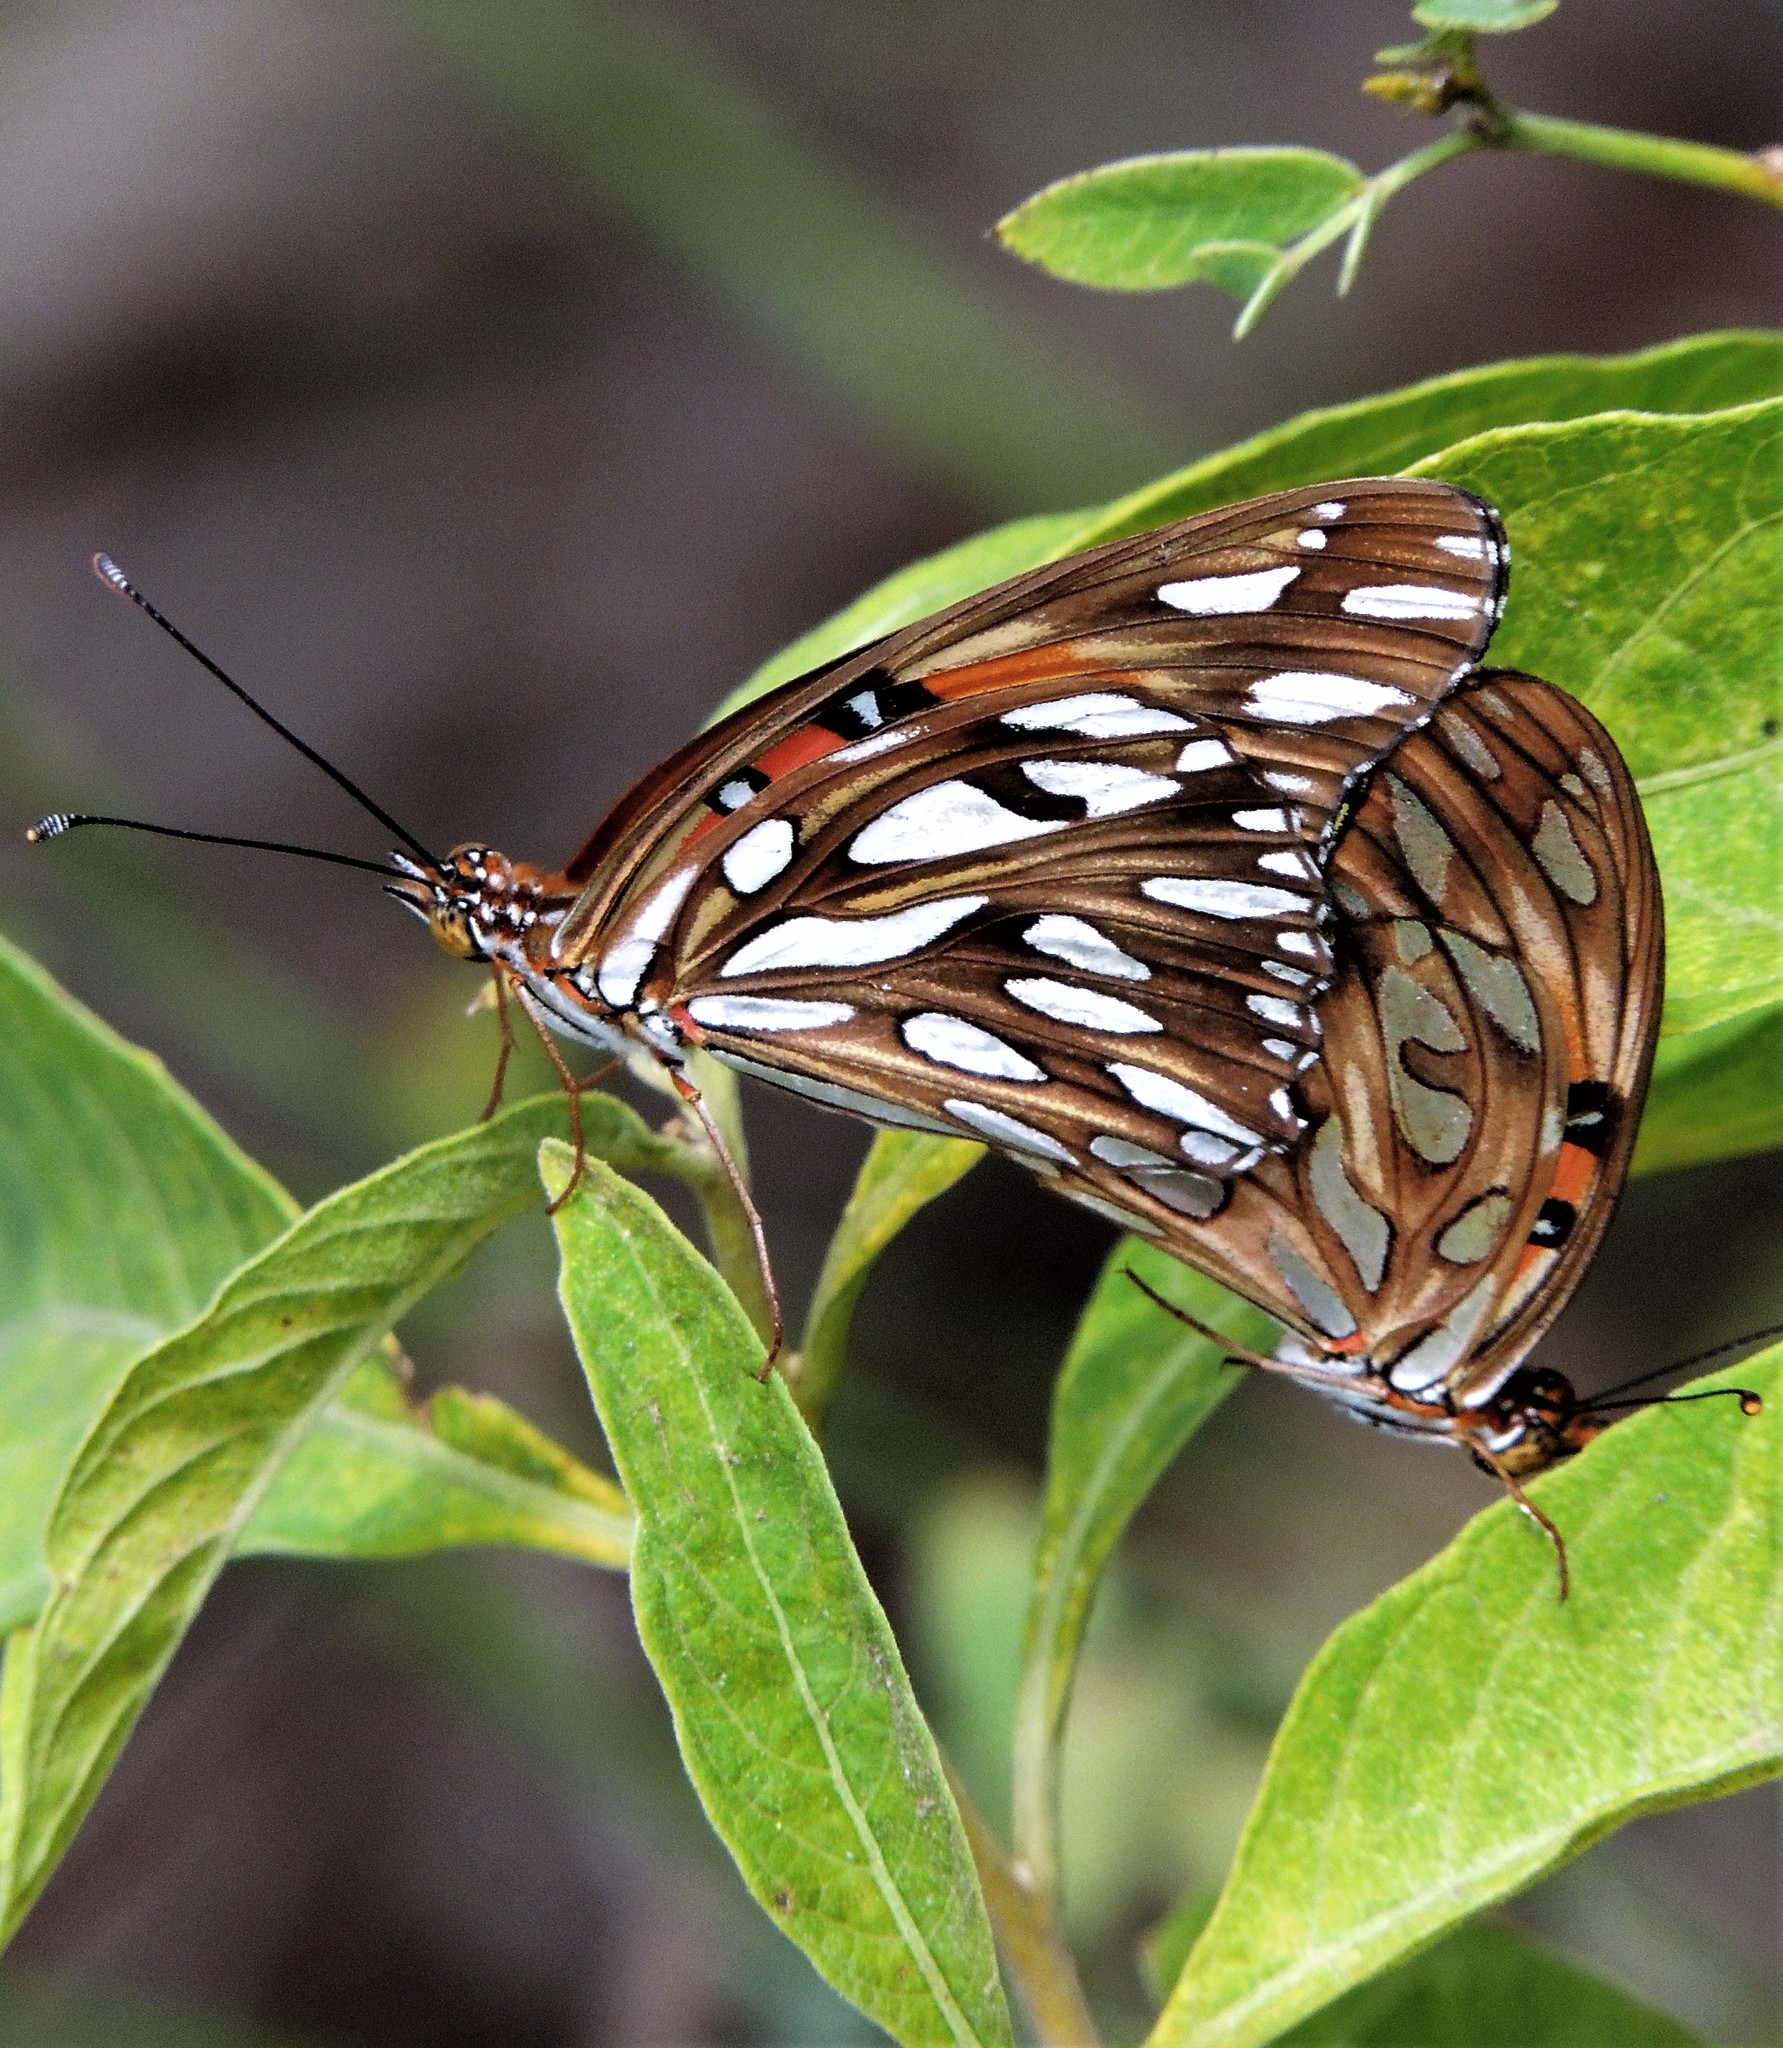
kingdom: Animalia
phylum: Arthropoda
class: Insecta
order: Lepidoptera
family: Nymphalidae
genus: Dione
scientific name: Dione vanillae
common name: Gulf fritillary
